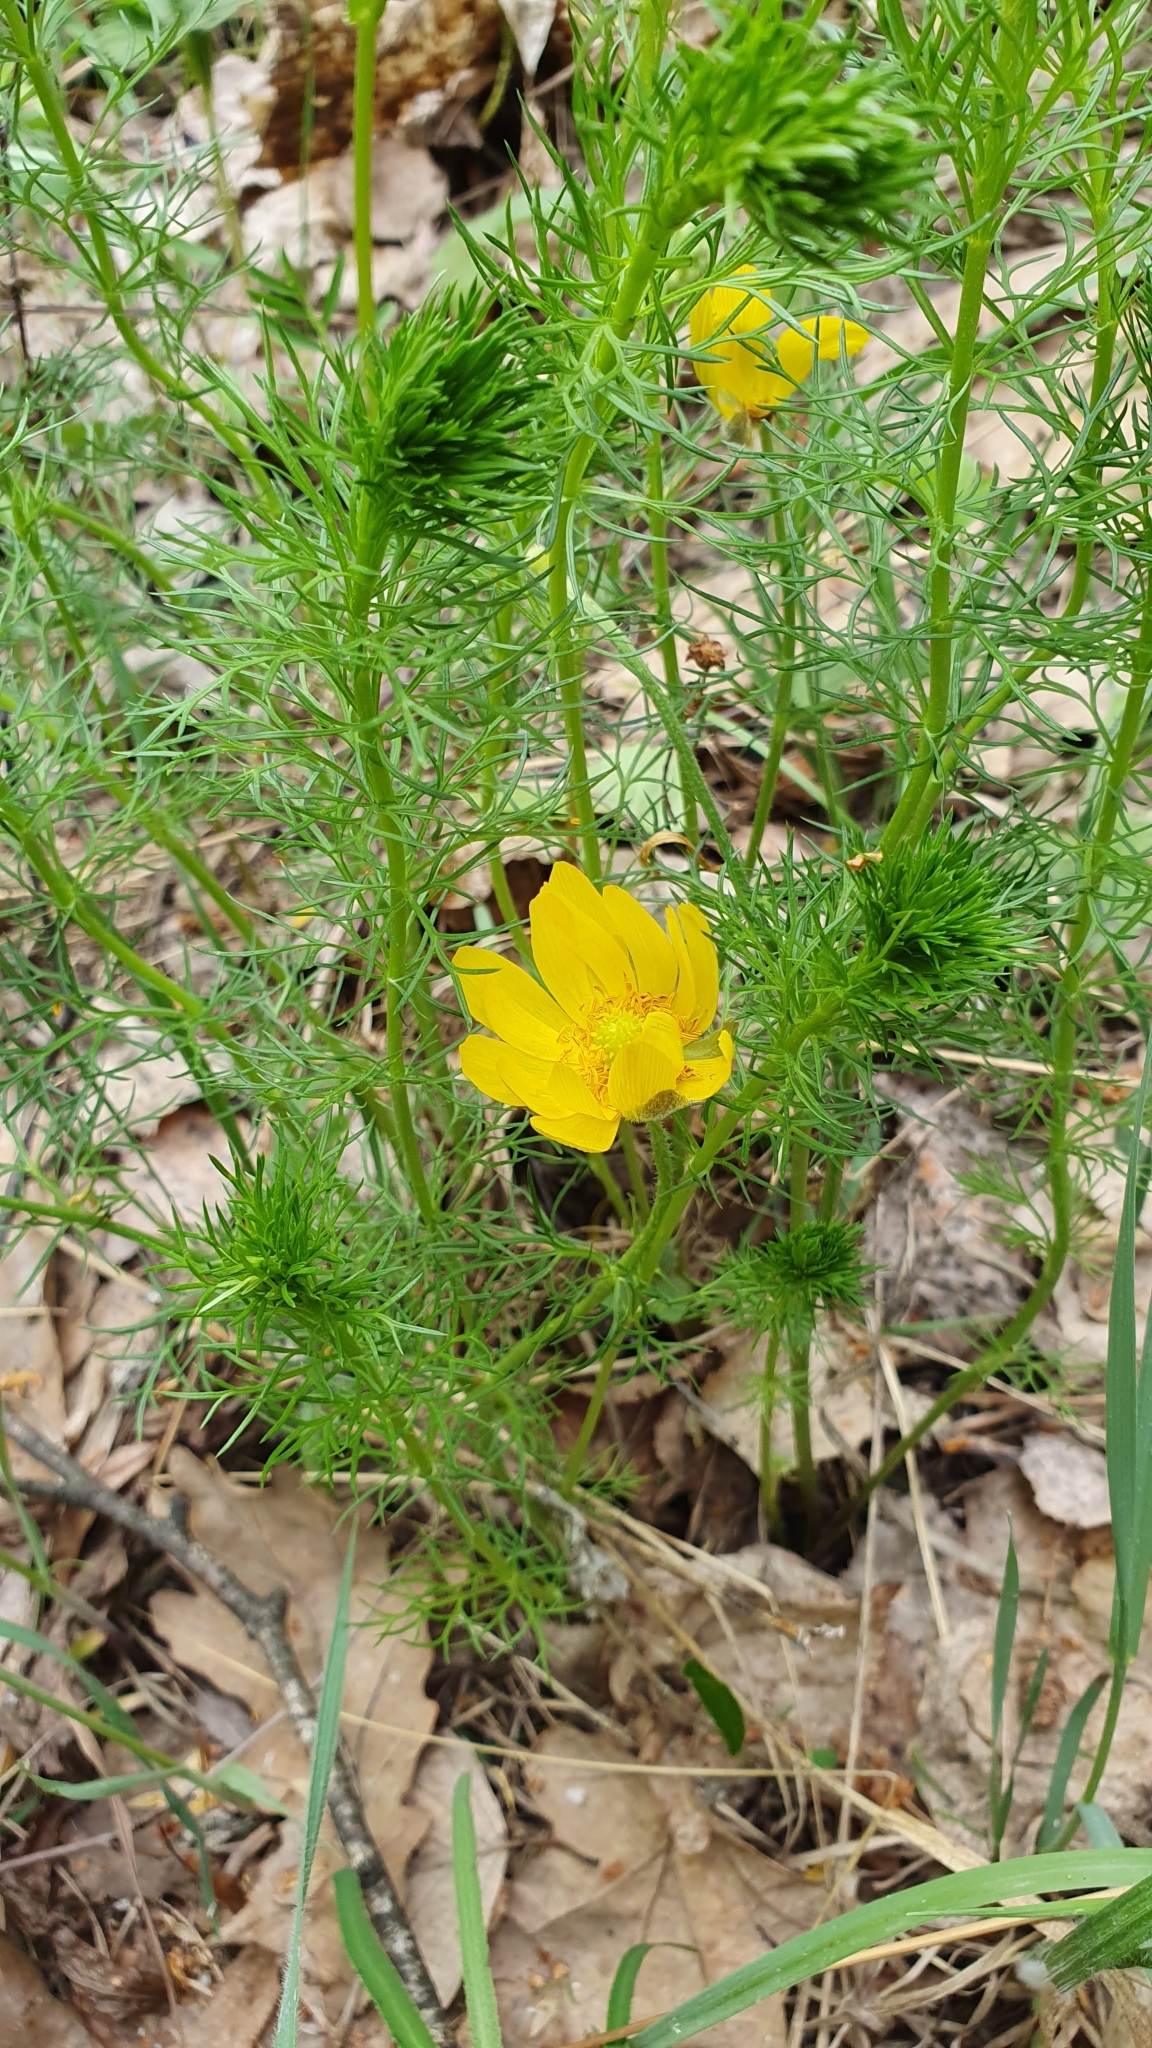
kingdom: Plantae
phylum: Tracheophyta
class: Magnoliopsida
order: Ranunculales
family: Ranunculaceae
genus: Adonis
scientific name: Adonis vernalis
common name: Yellow pheasants-eye
